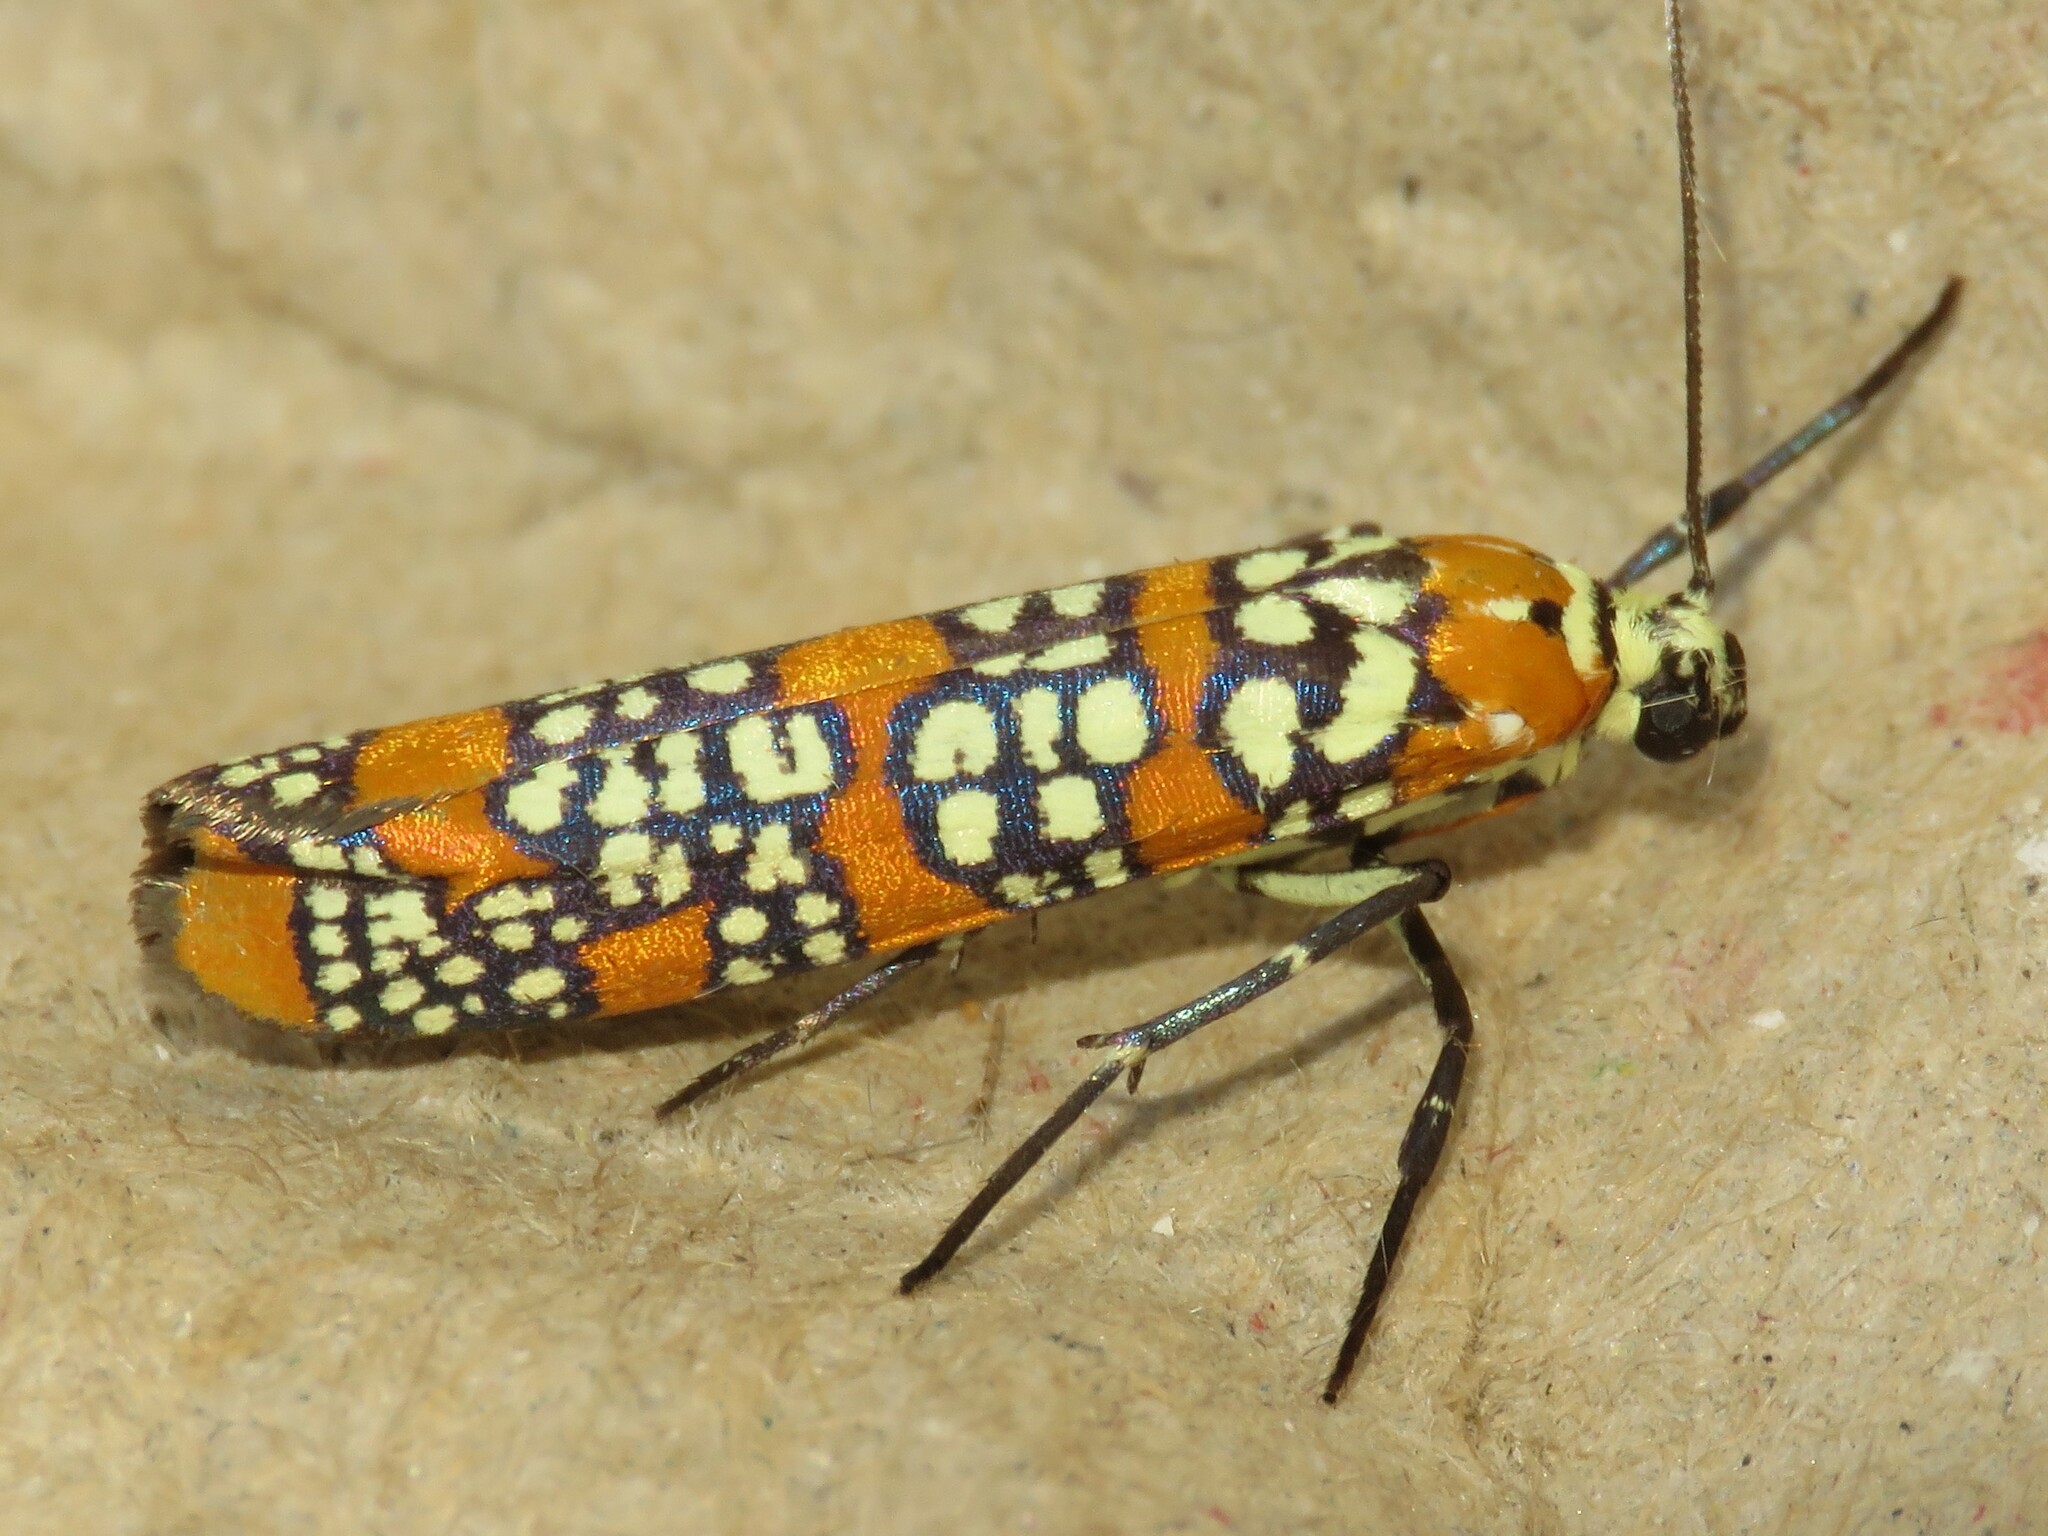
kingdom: Animalia
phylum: Arthropoda
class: Insecta
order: Lepidoptera
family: Attevidae
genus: Atteva
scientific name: Atteva punctella
